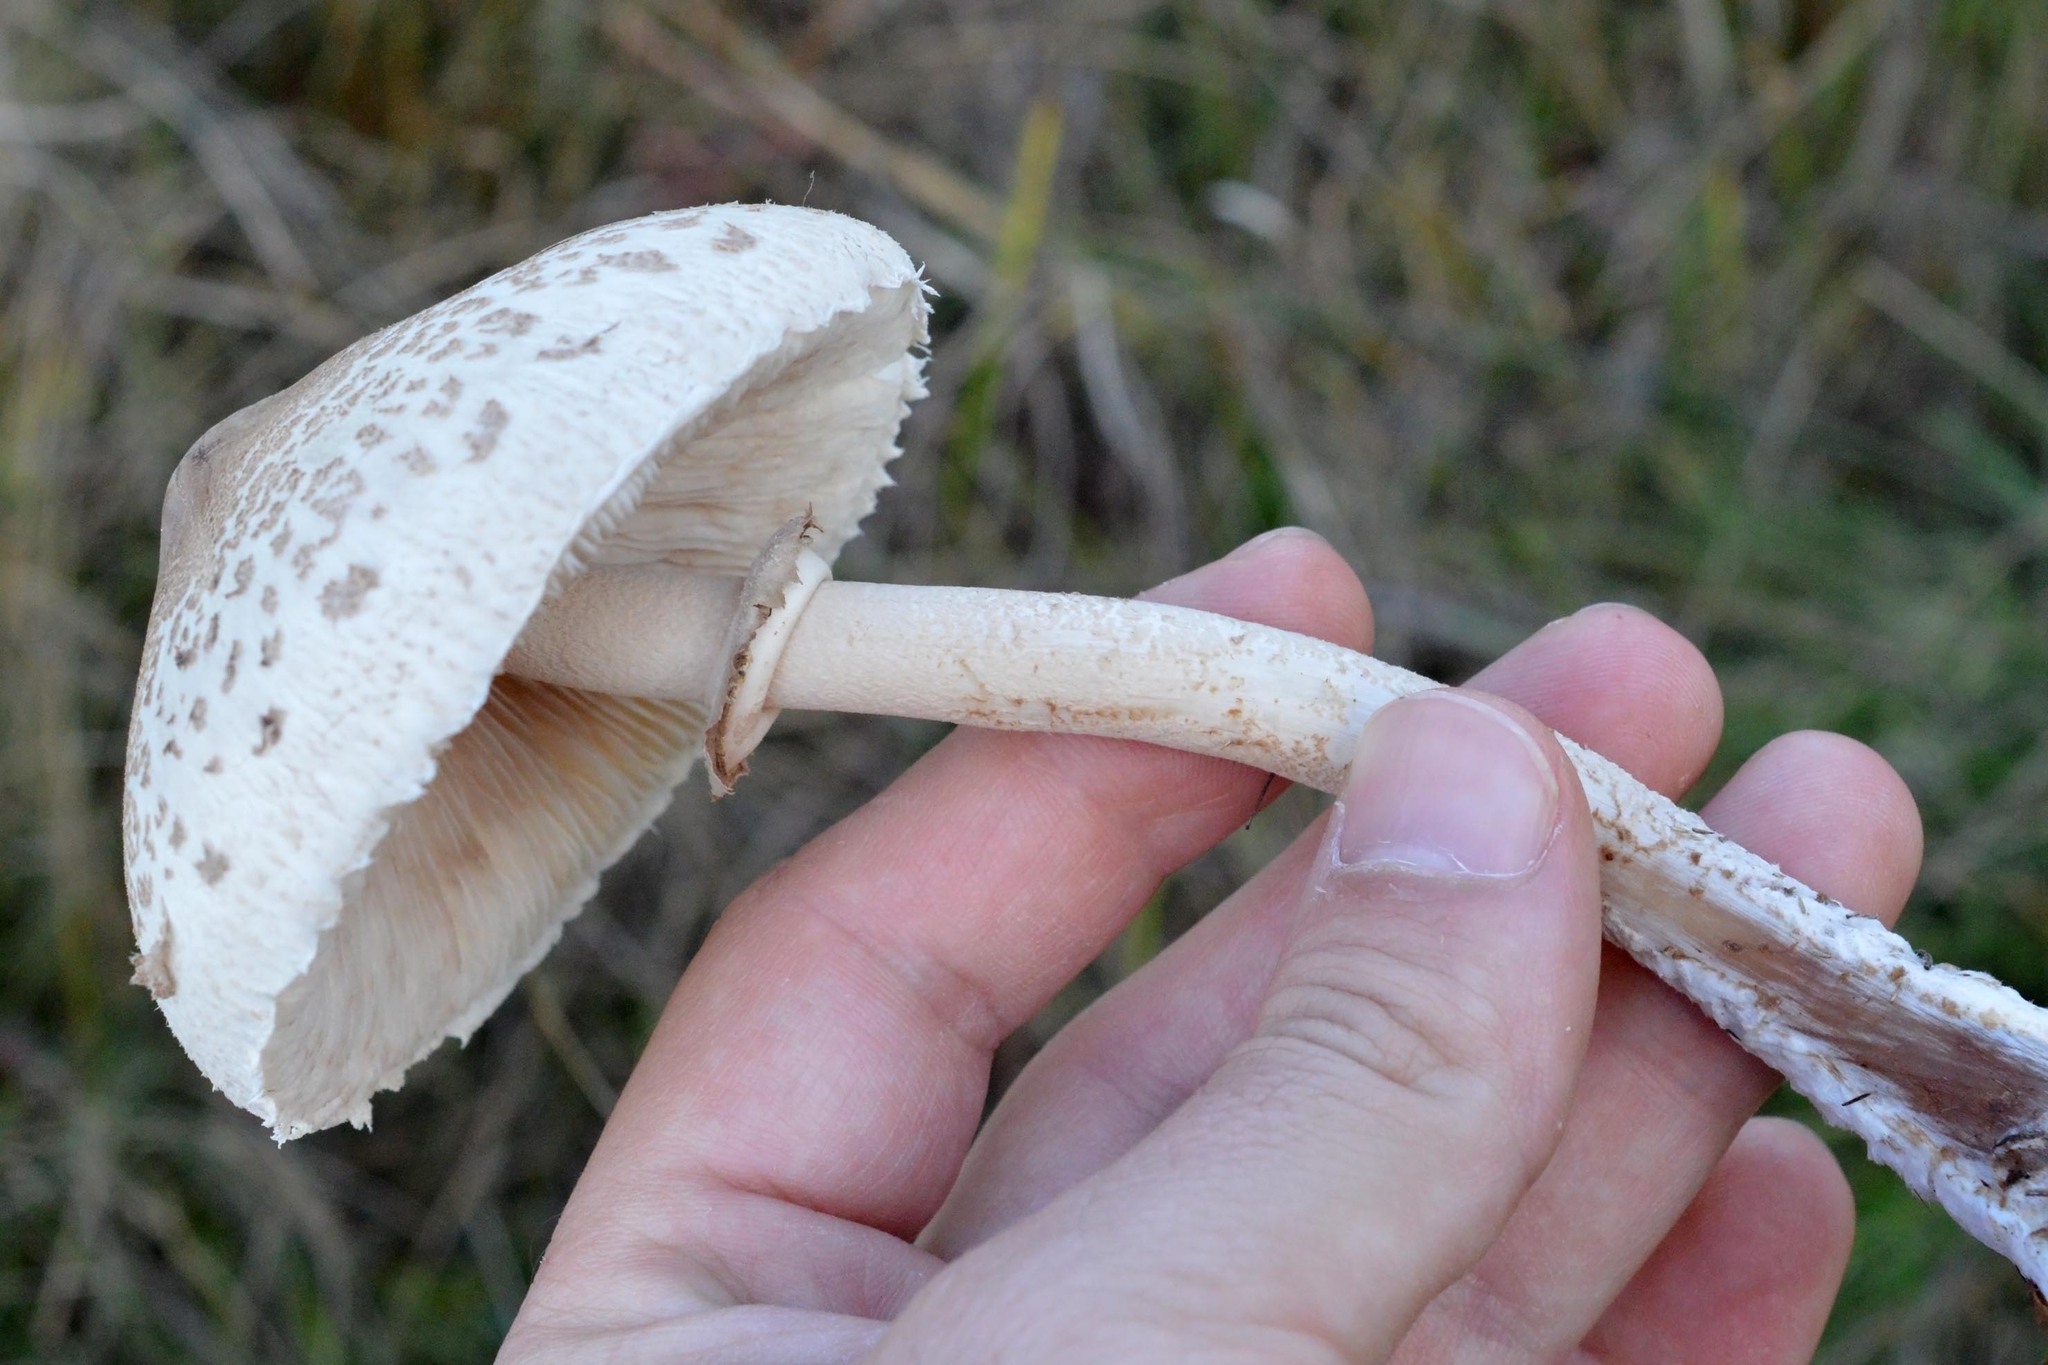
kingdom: Fungi
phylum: Basidiomycota
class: Agaricomycetes
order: Agaricales
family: Agaricaceae
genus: Macrolepiota
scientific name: Macrolepiota mastoidea
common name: Slender parasol
